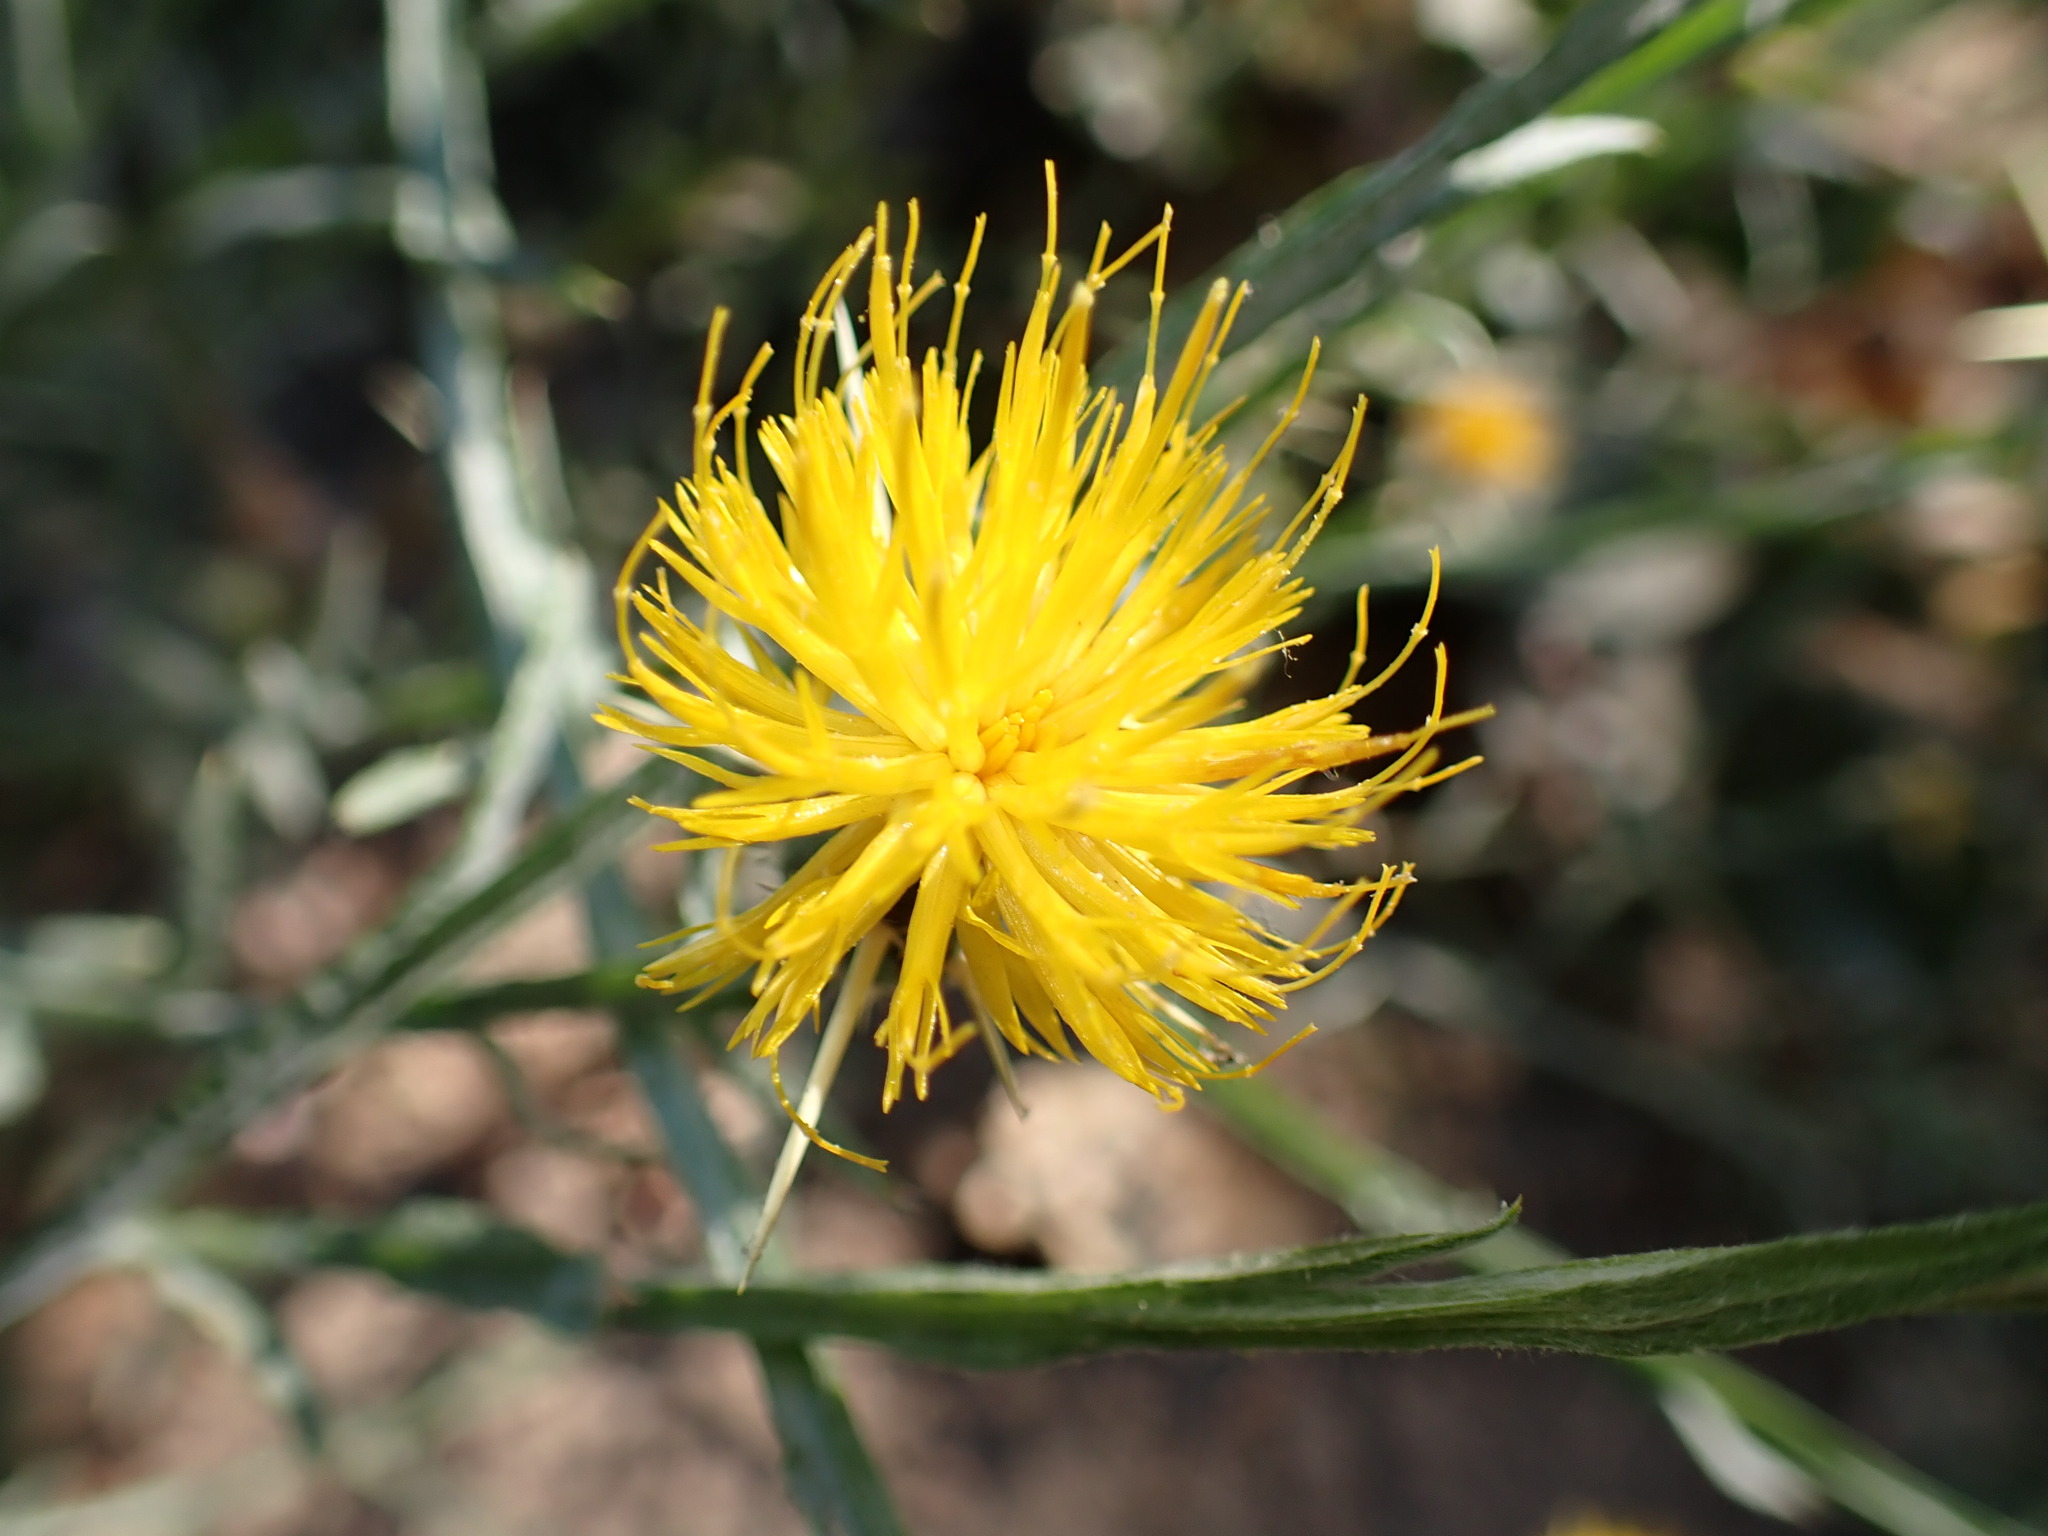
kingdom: Plantae
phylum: Tracheophyta
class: Magnoliopsida
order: Asterales
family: Asteraceae
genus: Centaurea
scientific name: Centaurea solstitialis
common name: Yellow star-thistle
